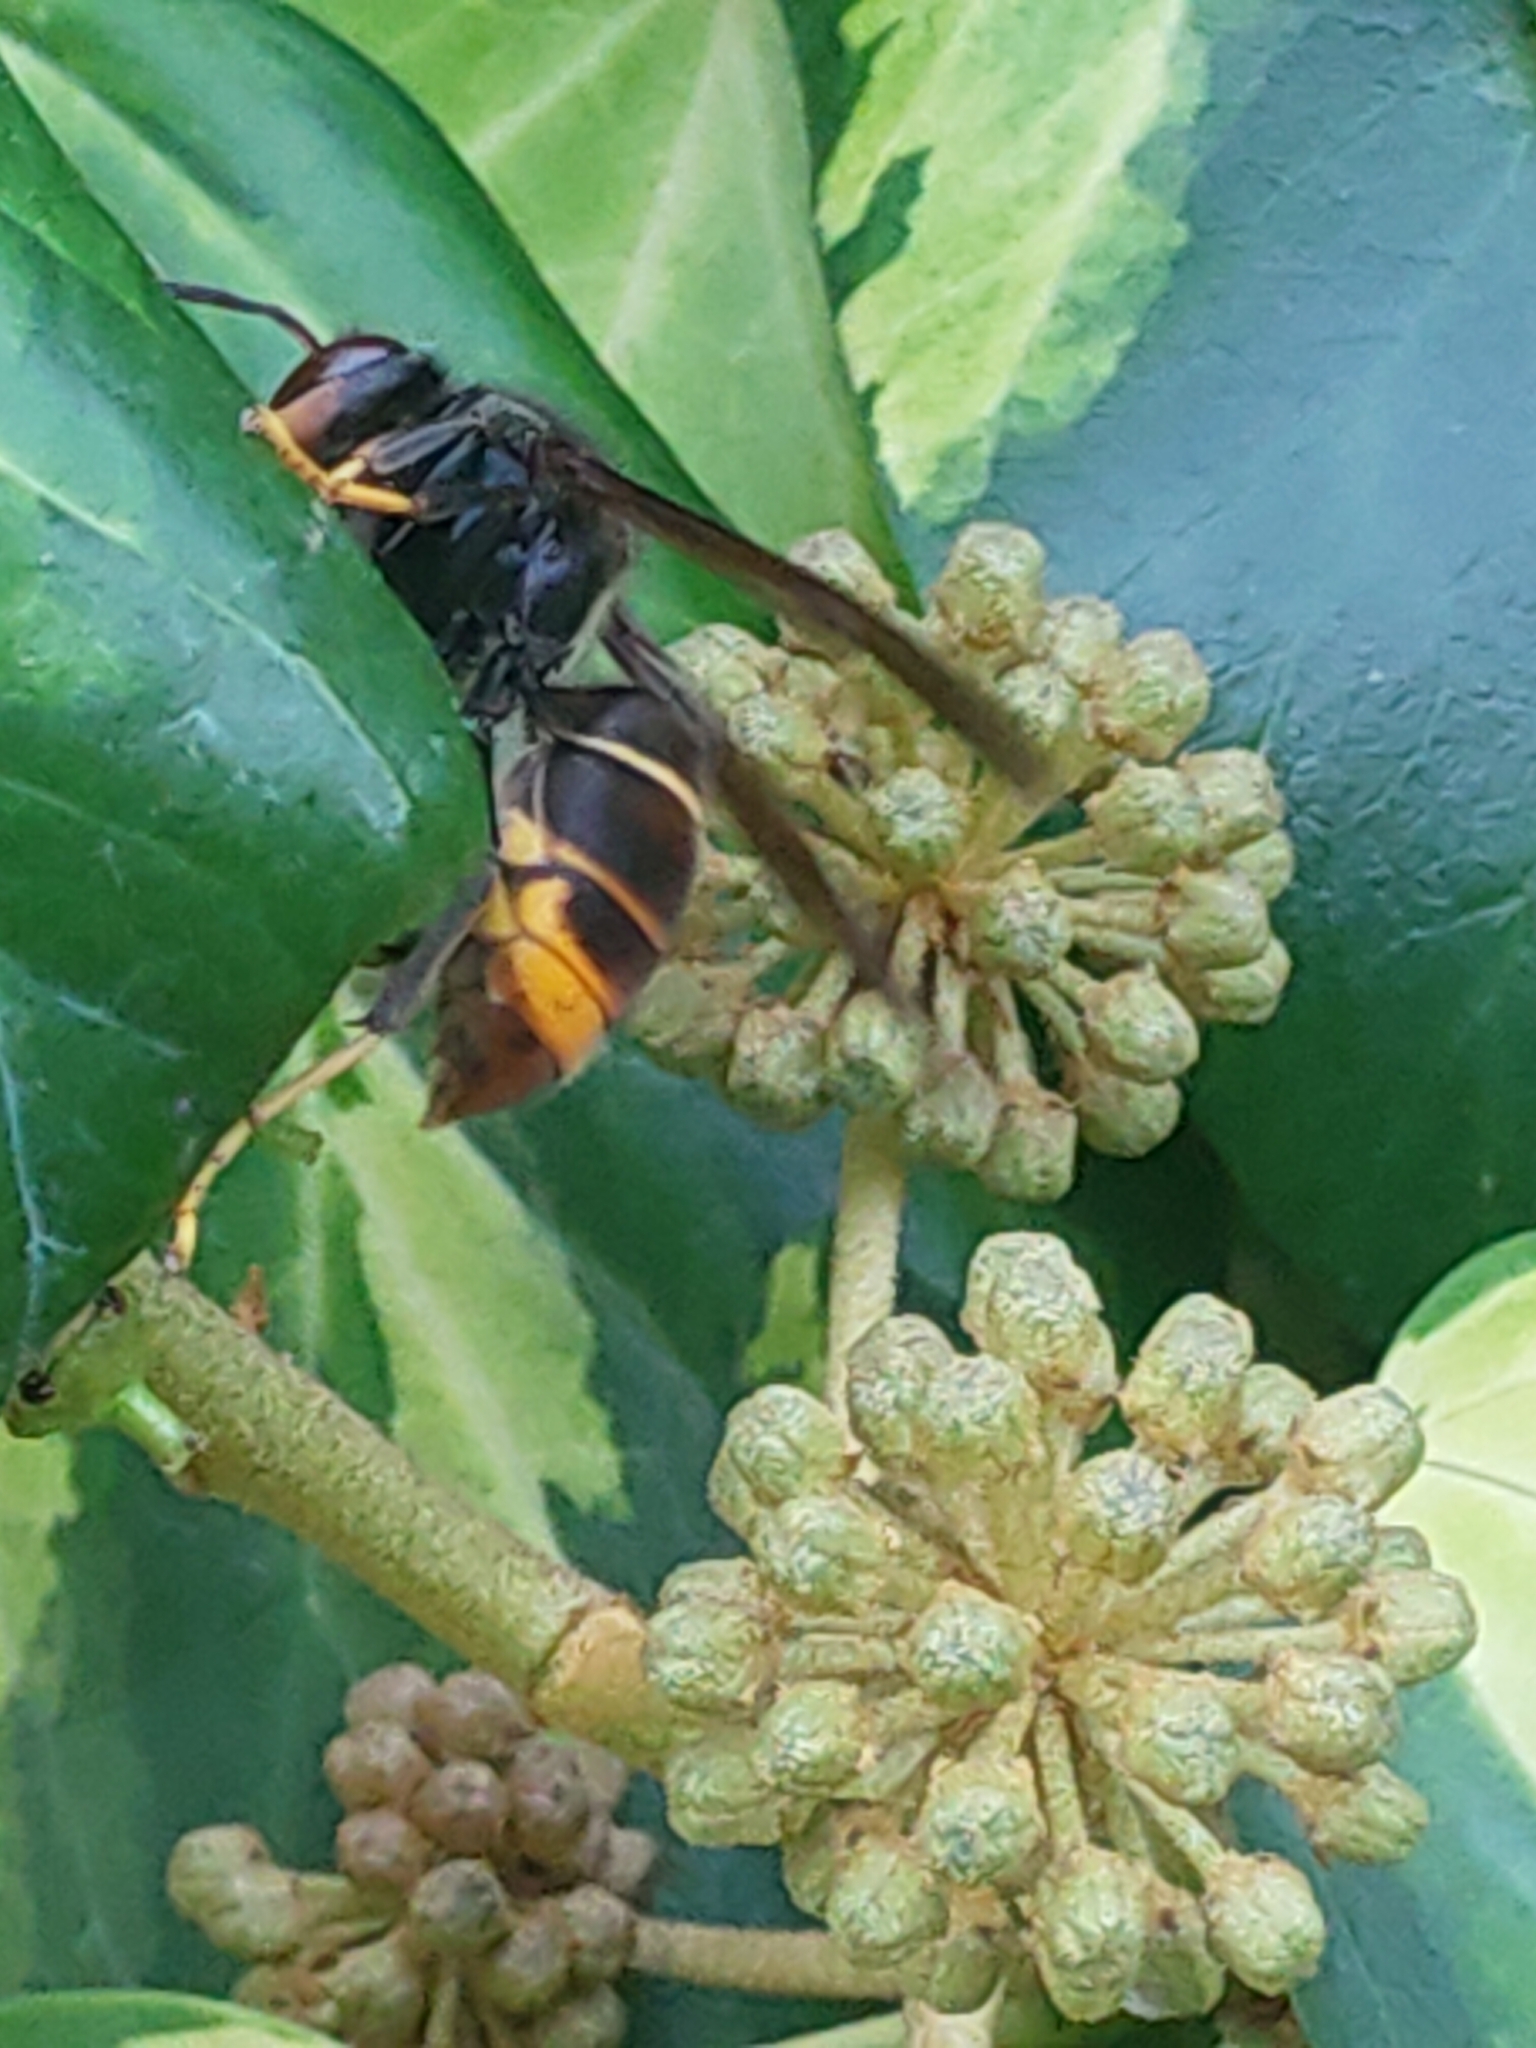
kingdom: Animalia
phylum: Arthropoda
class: Insecta
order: Hymenoptera
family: Vespidae
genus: Vespa
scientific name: Vespa velutina
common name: Asian hornet
